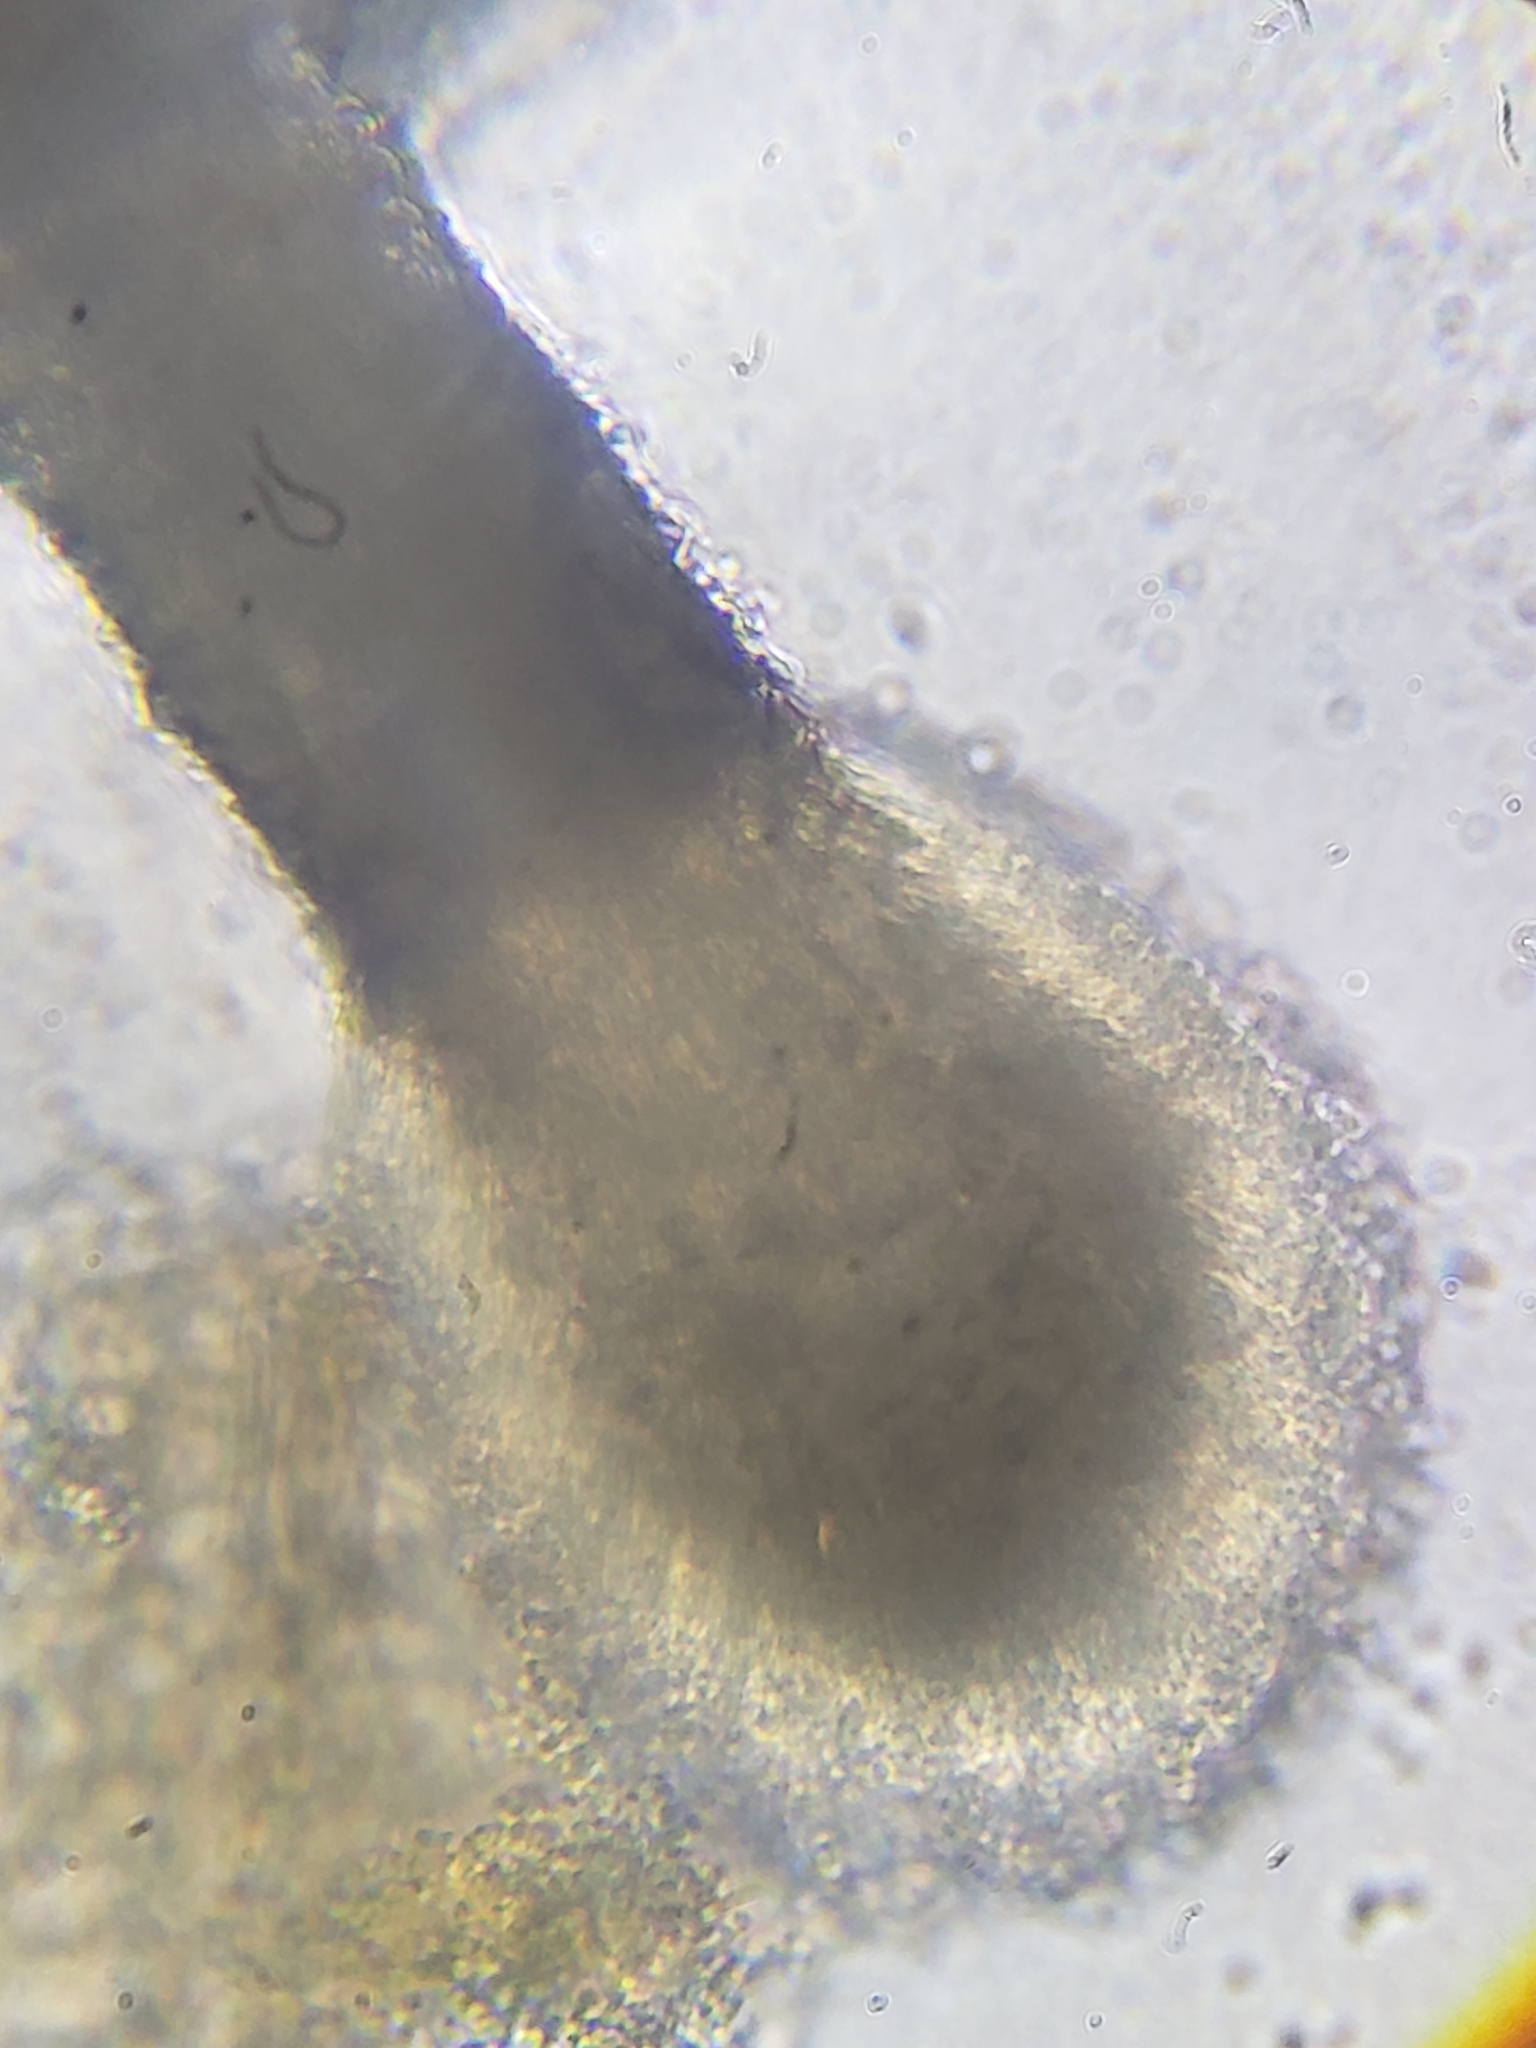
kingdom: Fungi
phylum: Ascomycota
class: Sordariomycetes
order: Hypocreales
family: Ophiocordycipitaceae
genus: Polycephalomyces
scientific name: Polycephalomyces tomentosus
